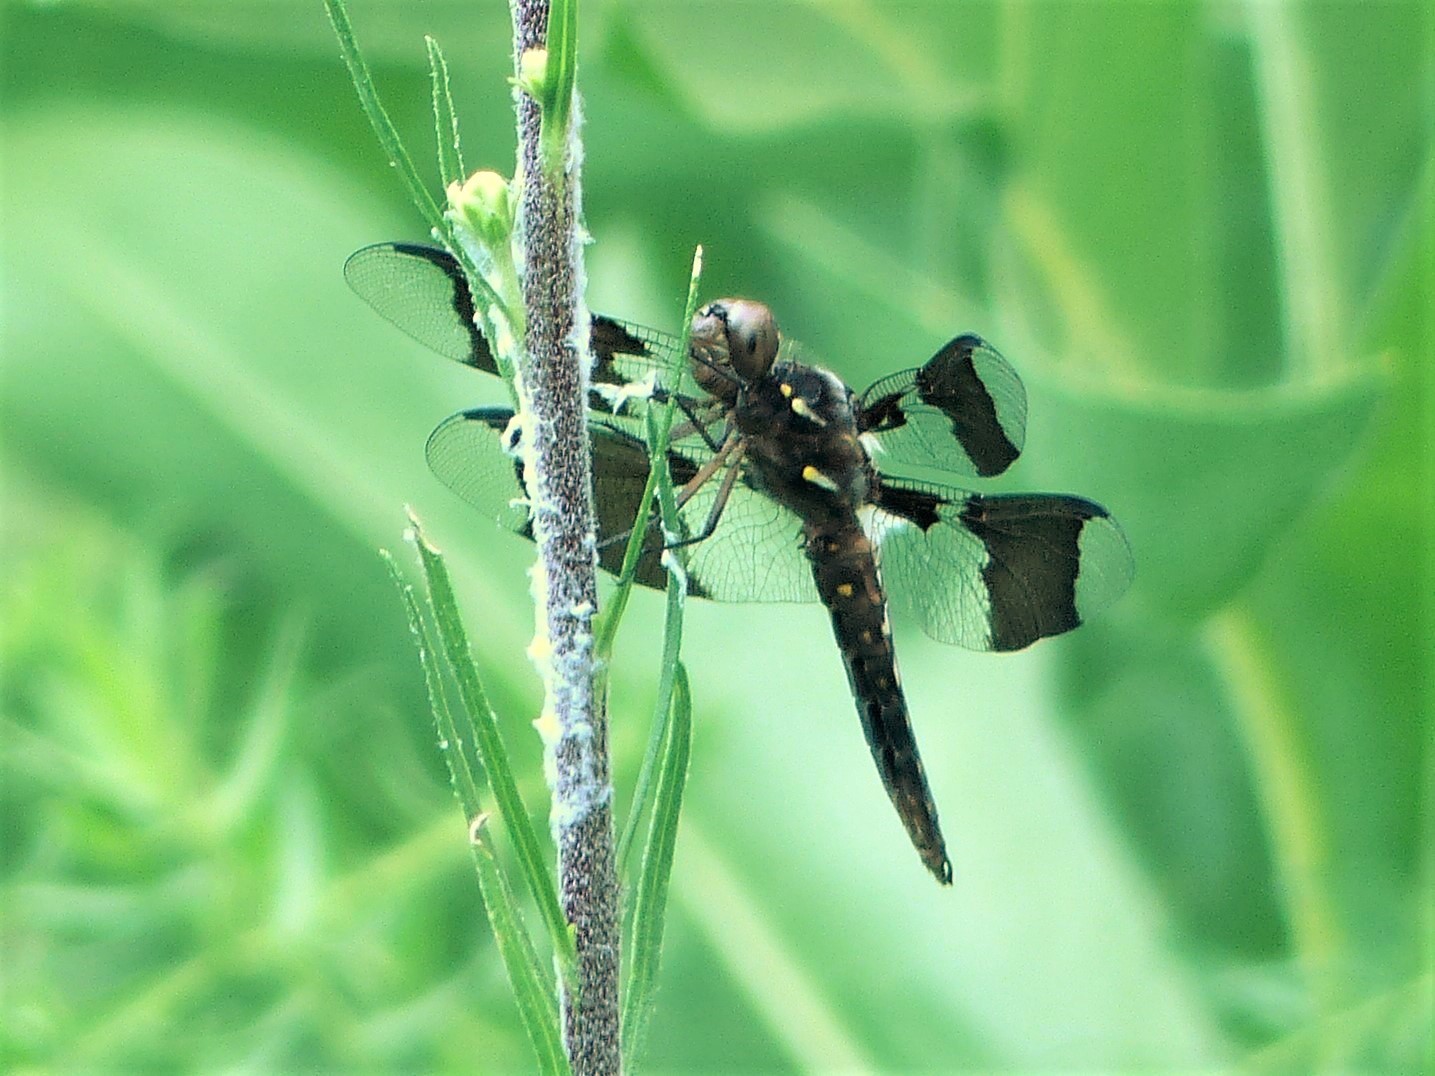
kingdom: Animalia
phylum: Arthropoda
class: Insecta
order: Odonata
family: Libellulidae
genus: Plathemis
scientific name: Plathemis lydia
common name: Common whitetail
